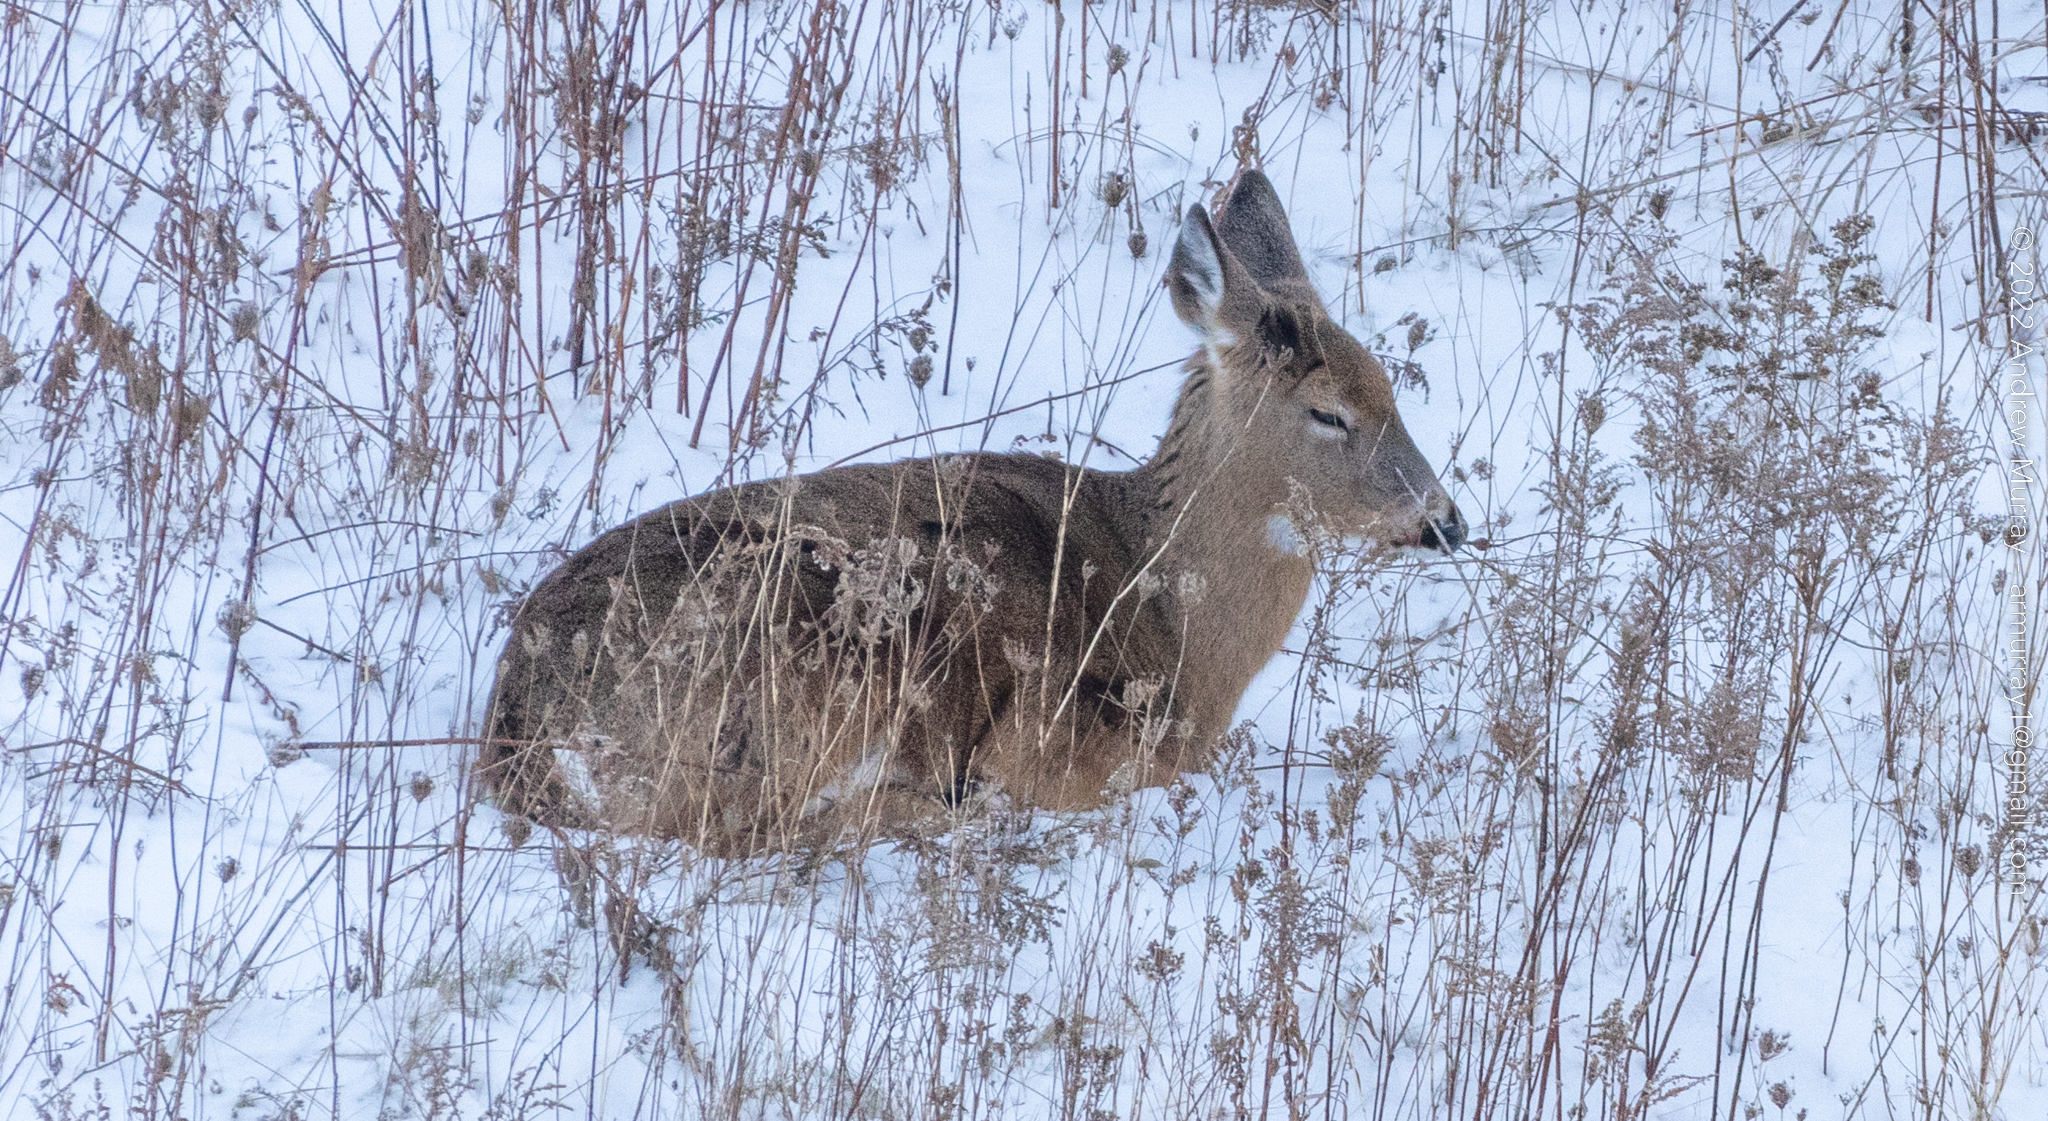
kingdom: Animalia
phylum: Chordata
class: Mammalia
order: Artiodactyla
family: Cervidae
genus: Odocoileus
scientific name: Odocoileus virginianus
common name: White-tailed deer
